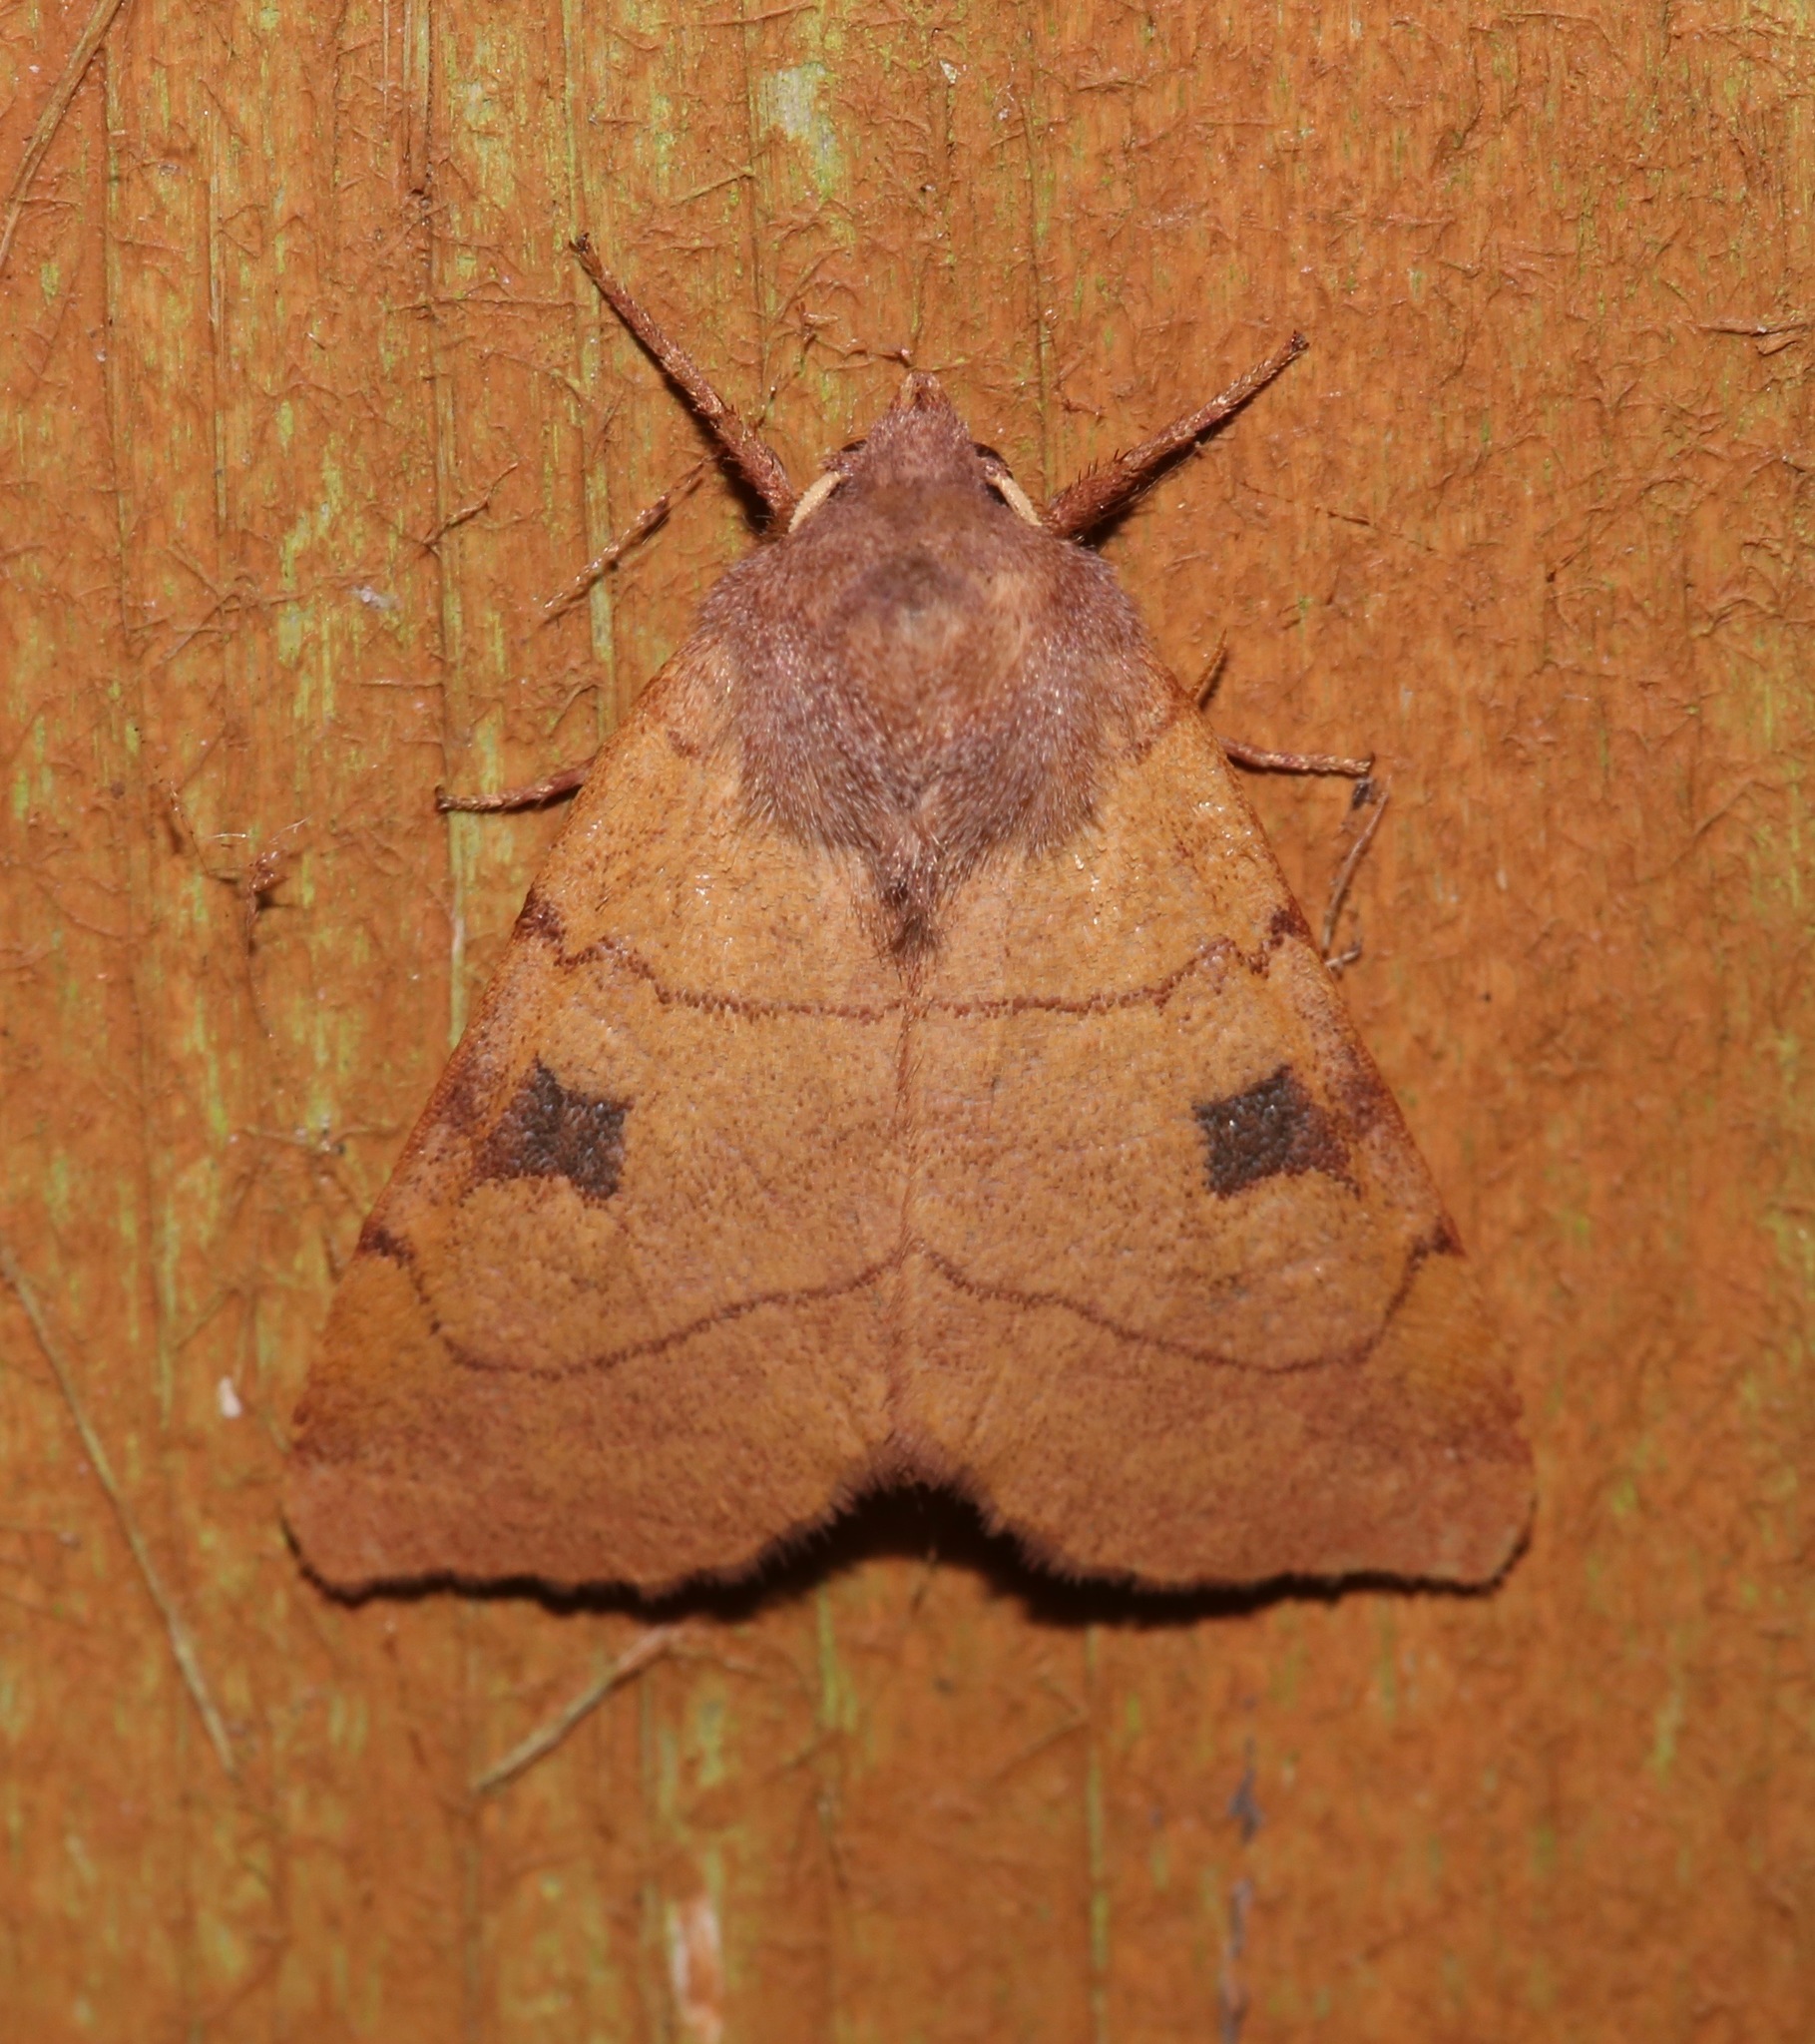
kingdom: Animalia
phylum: Arthropoda
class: Insecta
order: Lepidoptera
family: Noctuidae
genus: Choephora
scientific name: Choephora fungorum
